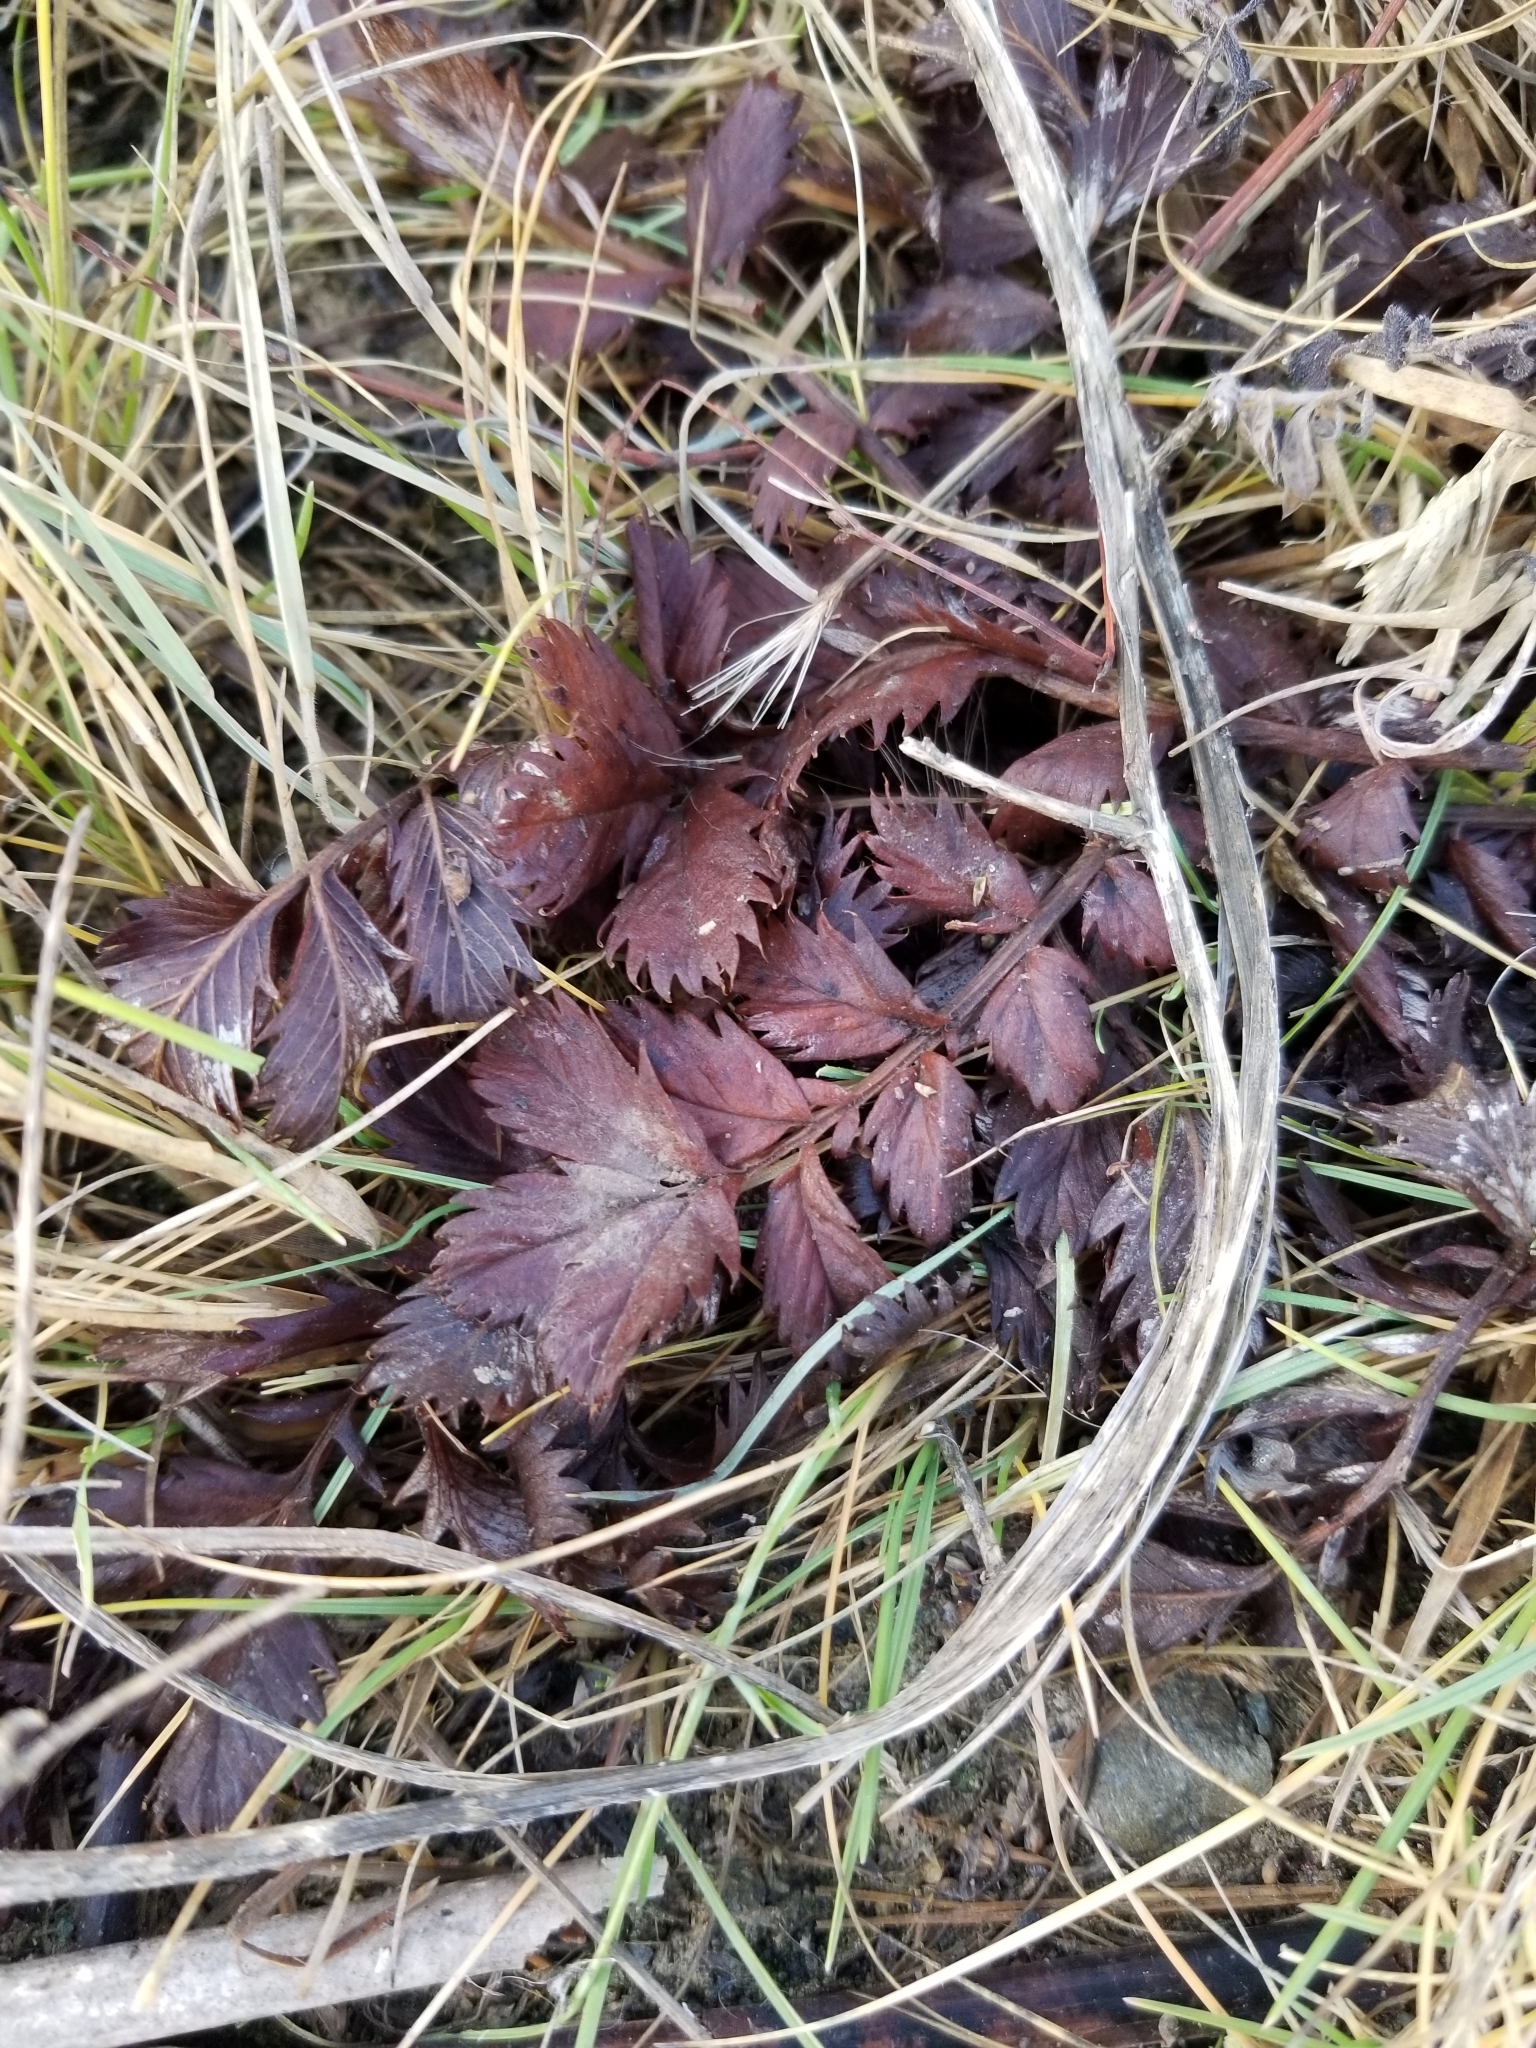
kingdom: Plantae
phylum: Tracheophyta
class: Magnoliopsida
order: Rosales
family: Rosaceae
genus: Argentina
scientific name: Argentina anserina
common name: Common silverweed
